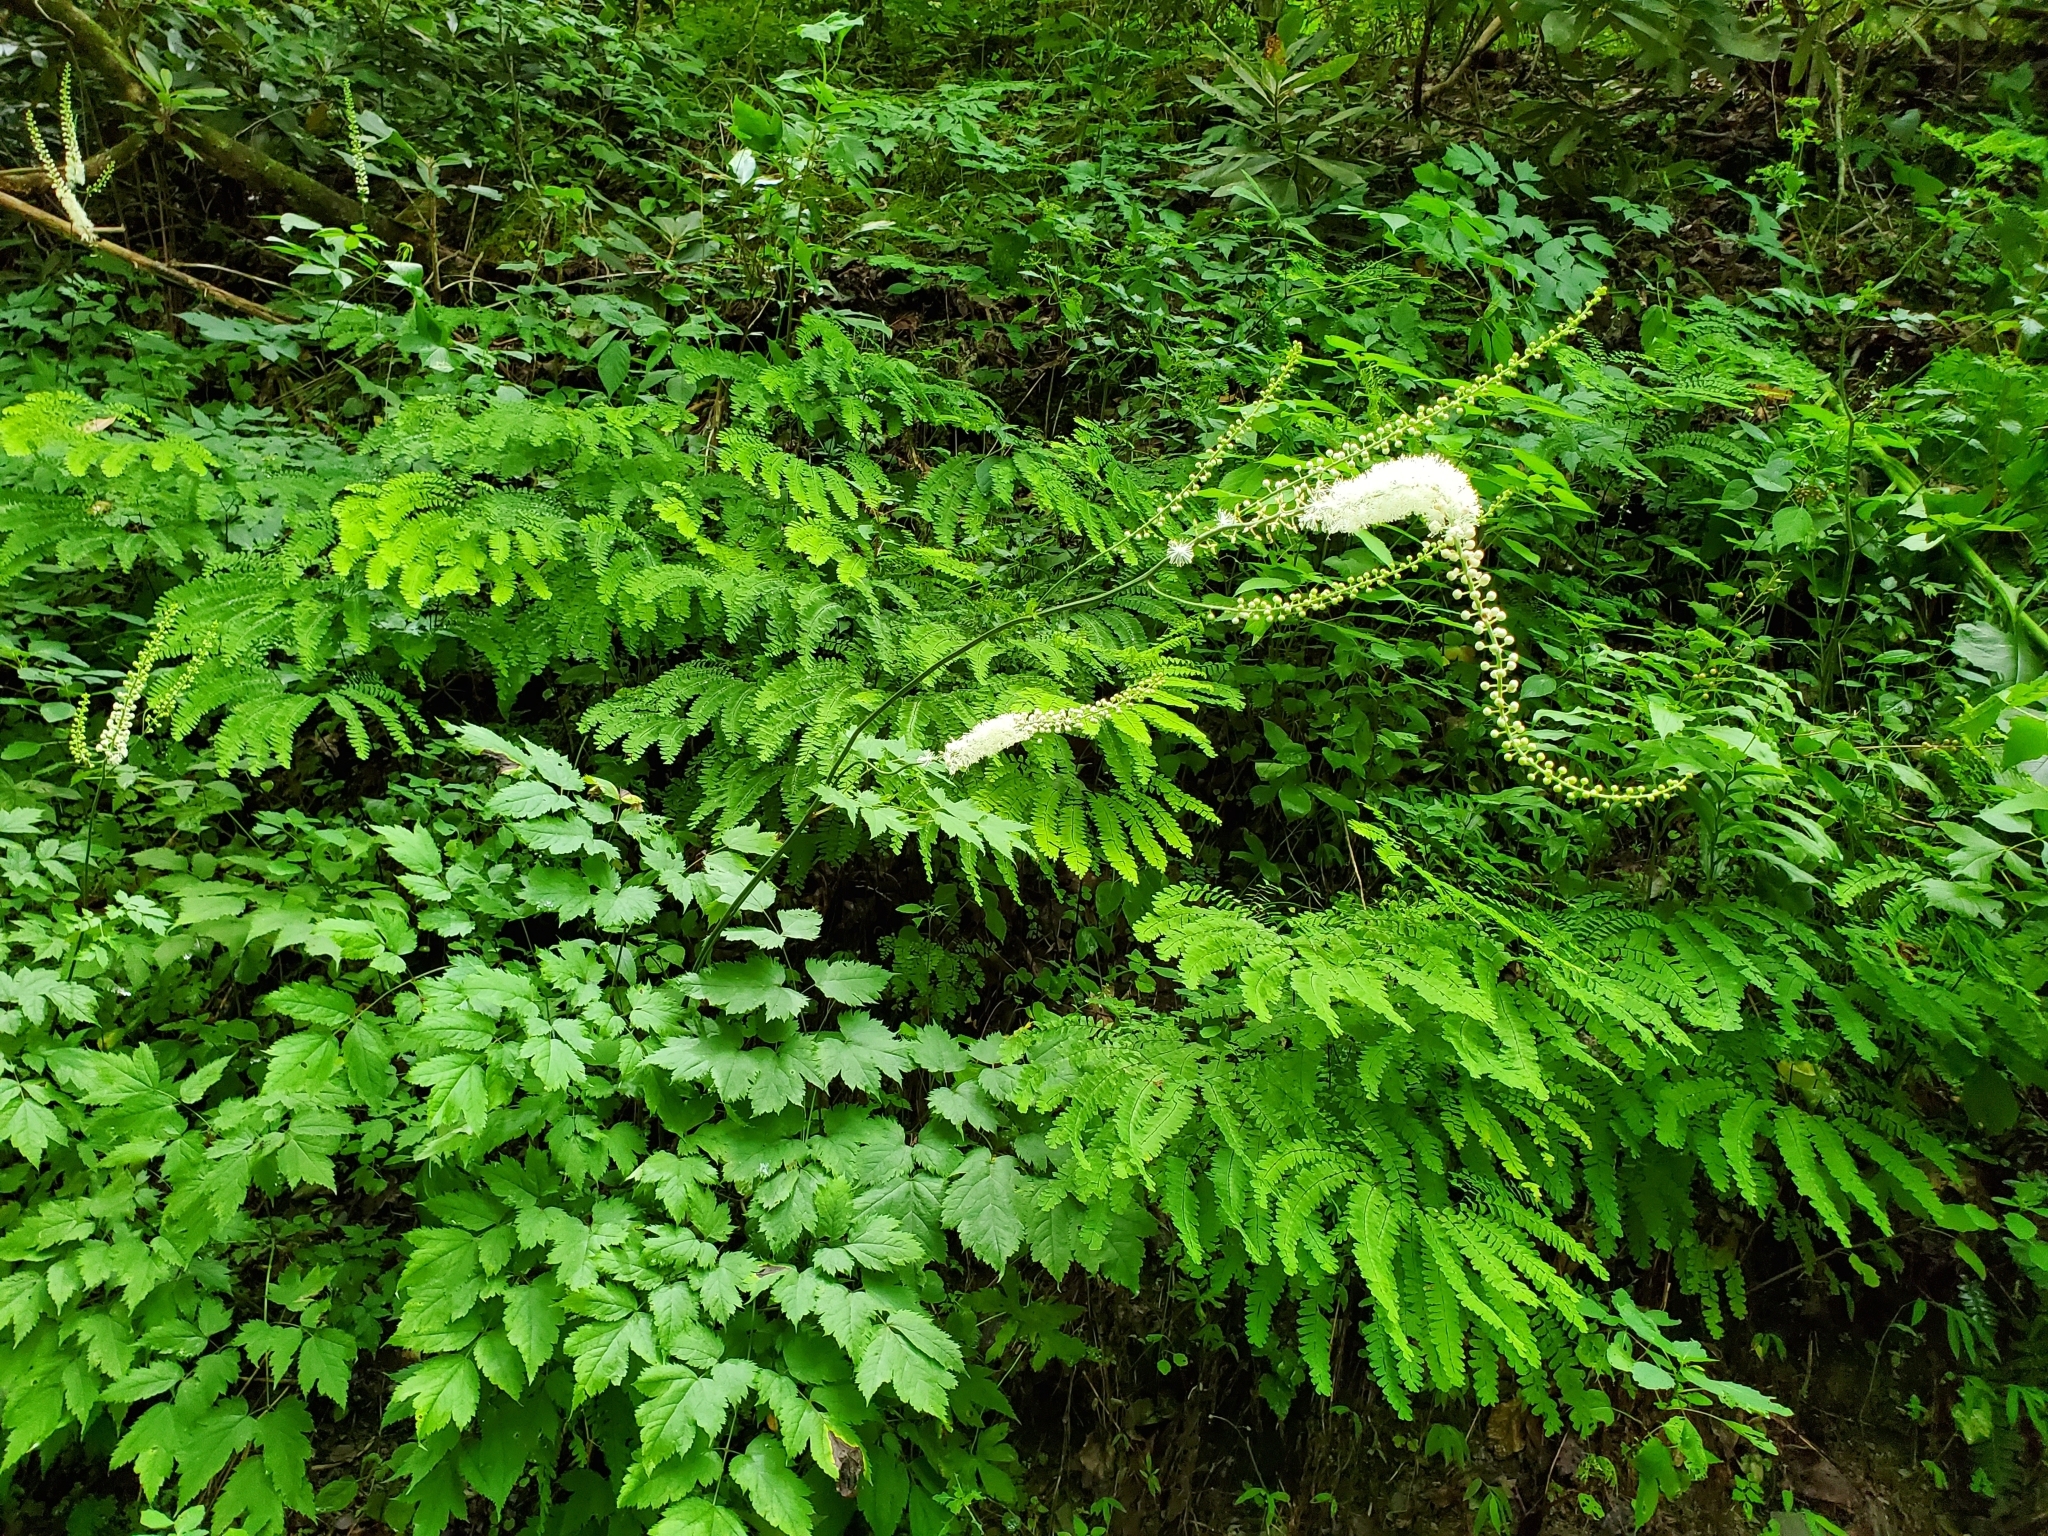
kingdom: Plantae
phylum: Tracheophyta
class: Magnoliopsida
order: Ranunculales
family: Ranunculaceae
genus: Actaea
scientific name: Actaea racemosa
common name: Black cohosh
